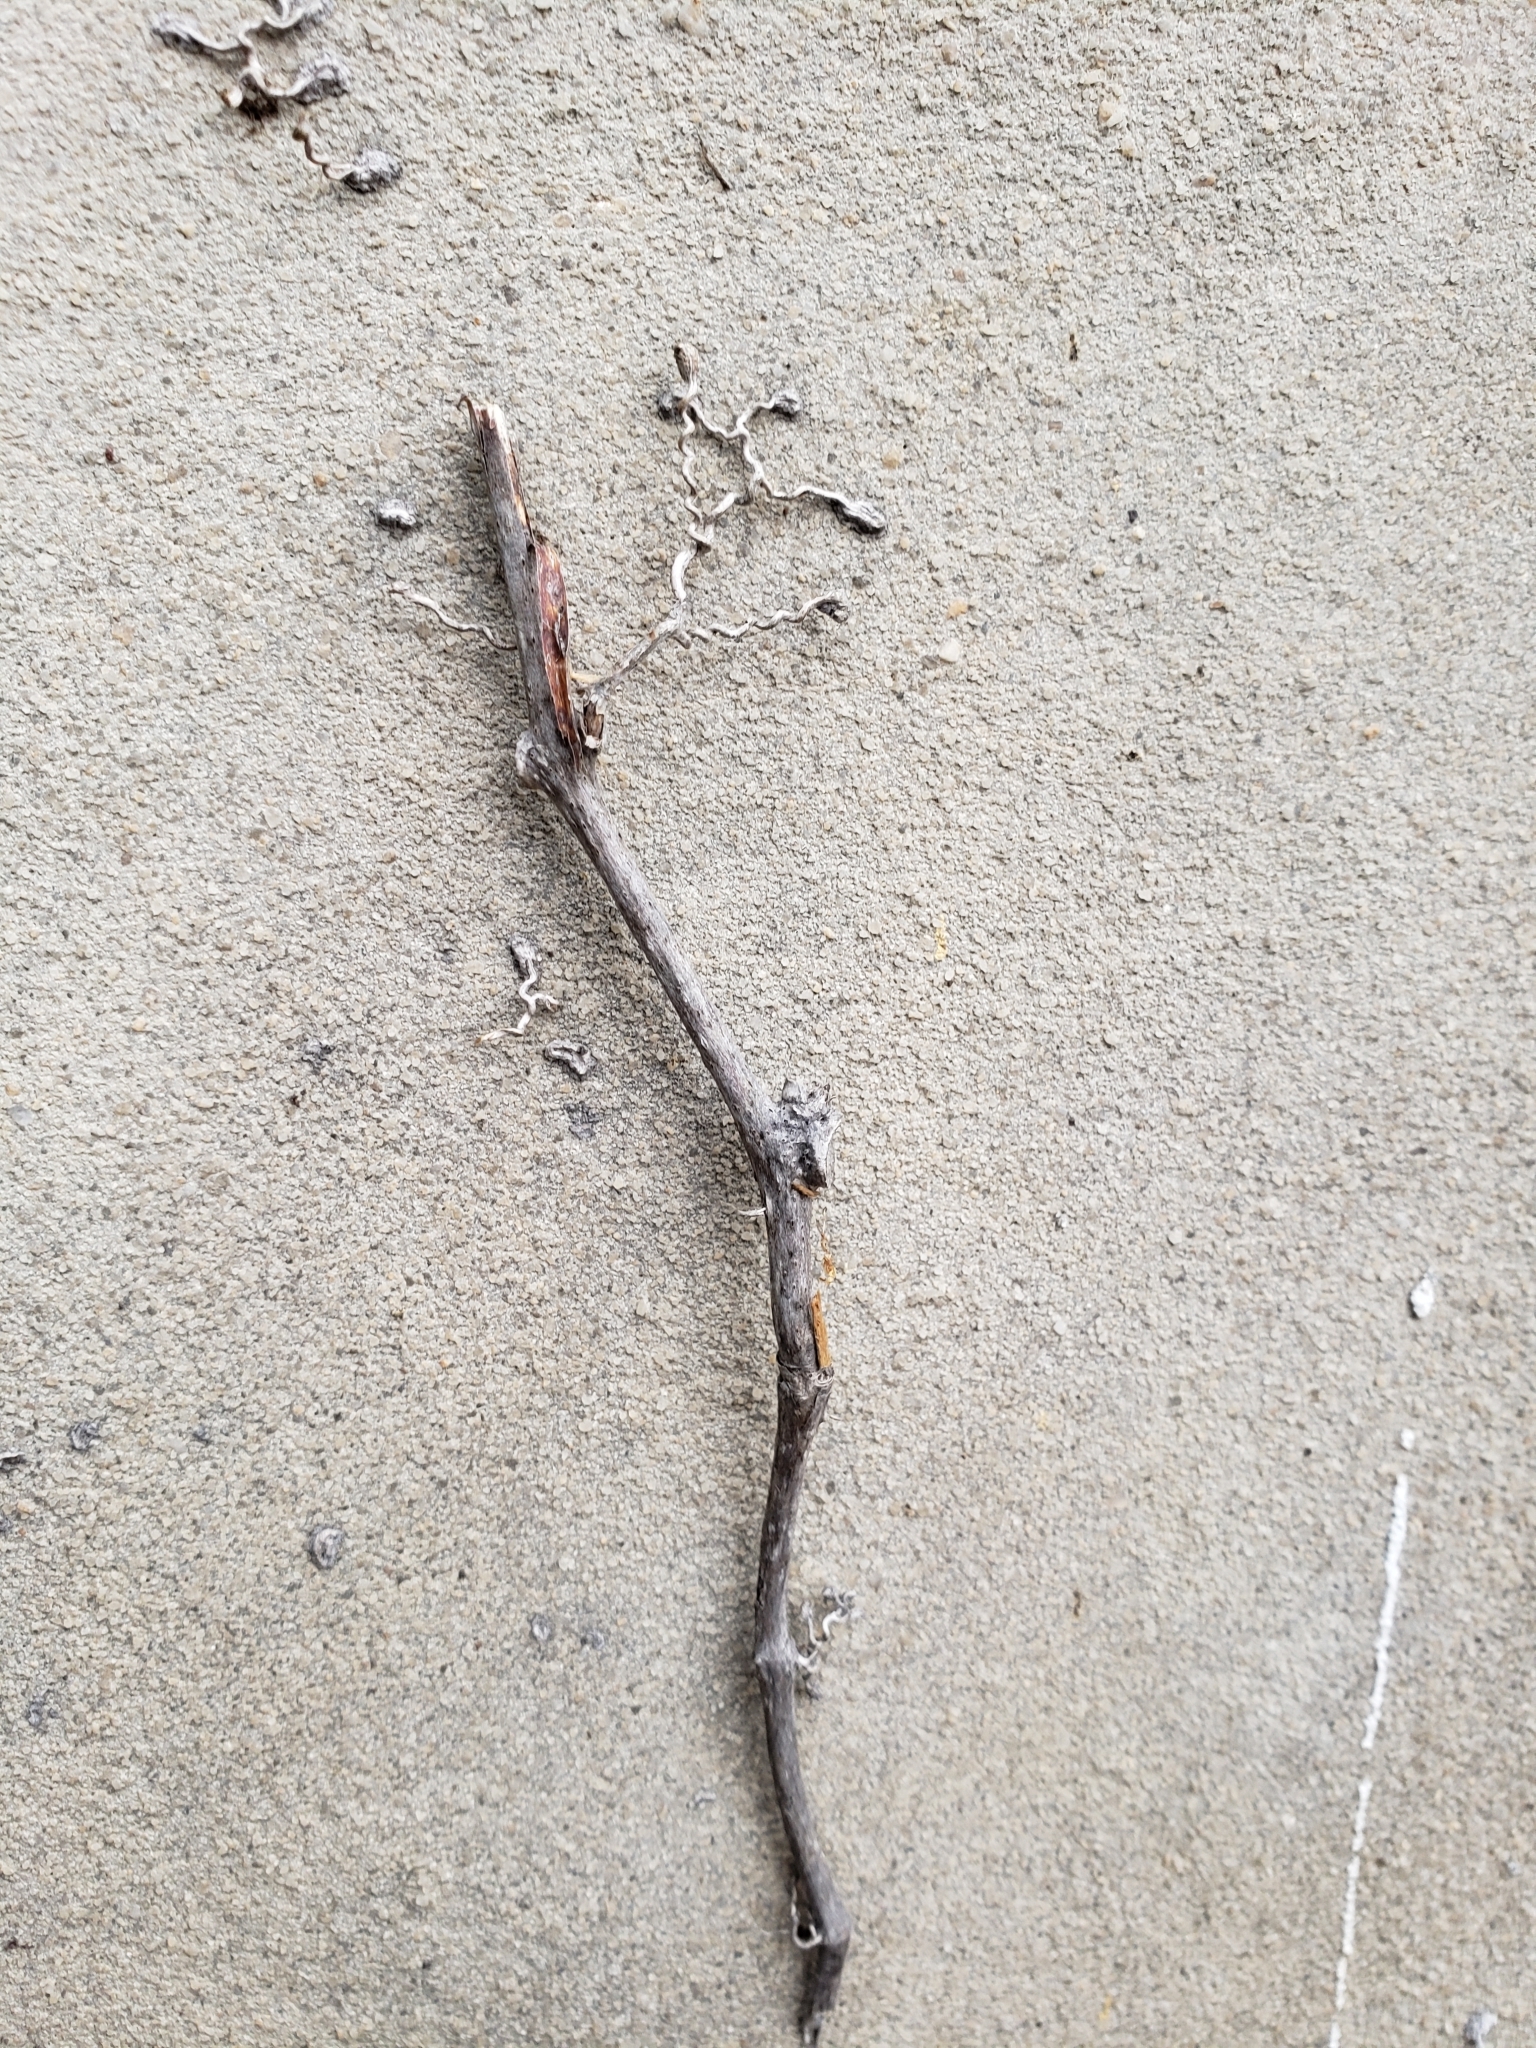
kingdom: Plantae
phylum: Tracheophyta
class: Magnoliopsida
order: Vitales
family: Vitaceae
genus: Parthenocissus
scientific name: Parthenocissus quinquefolia
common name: Virginia-creeper
